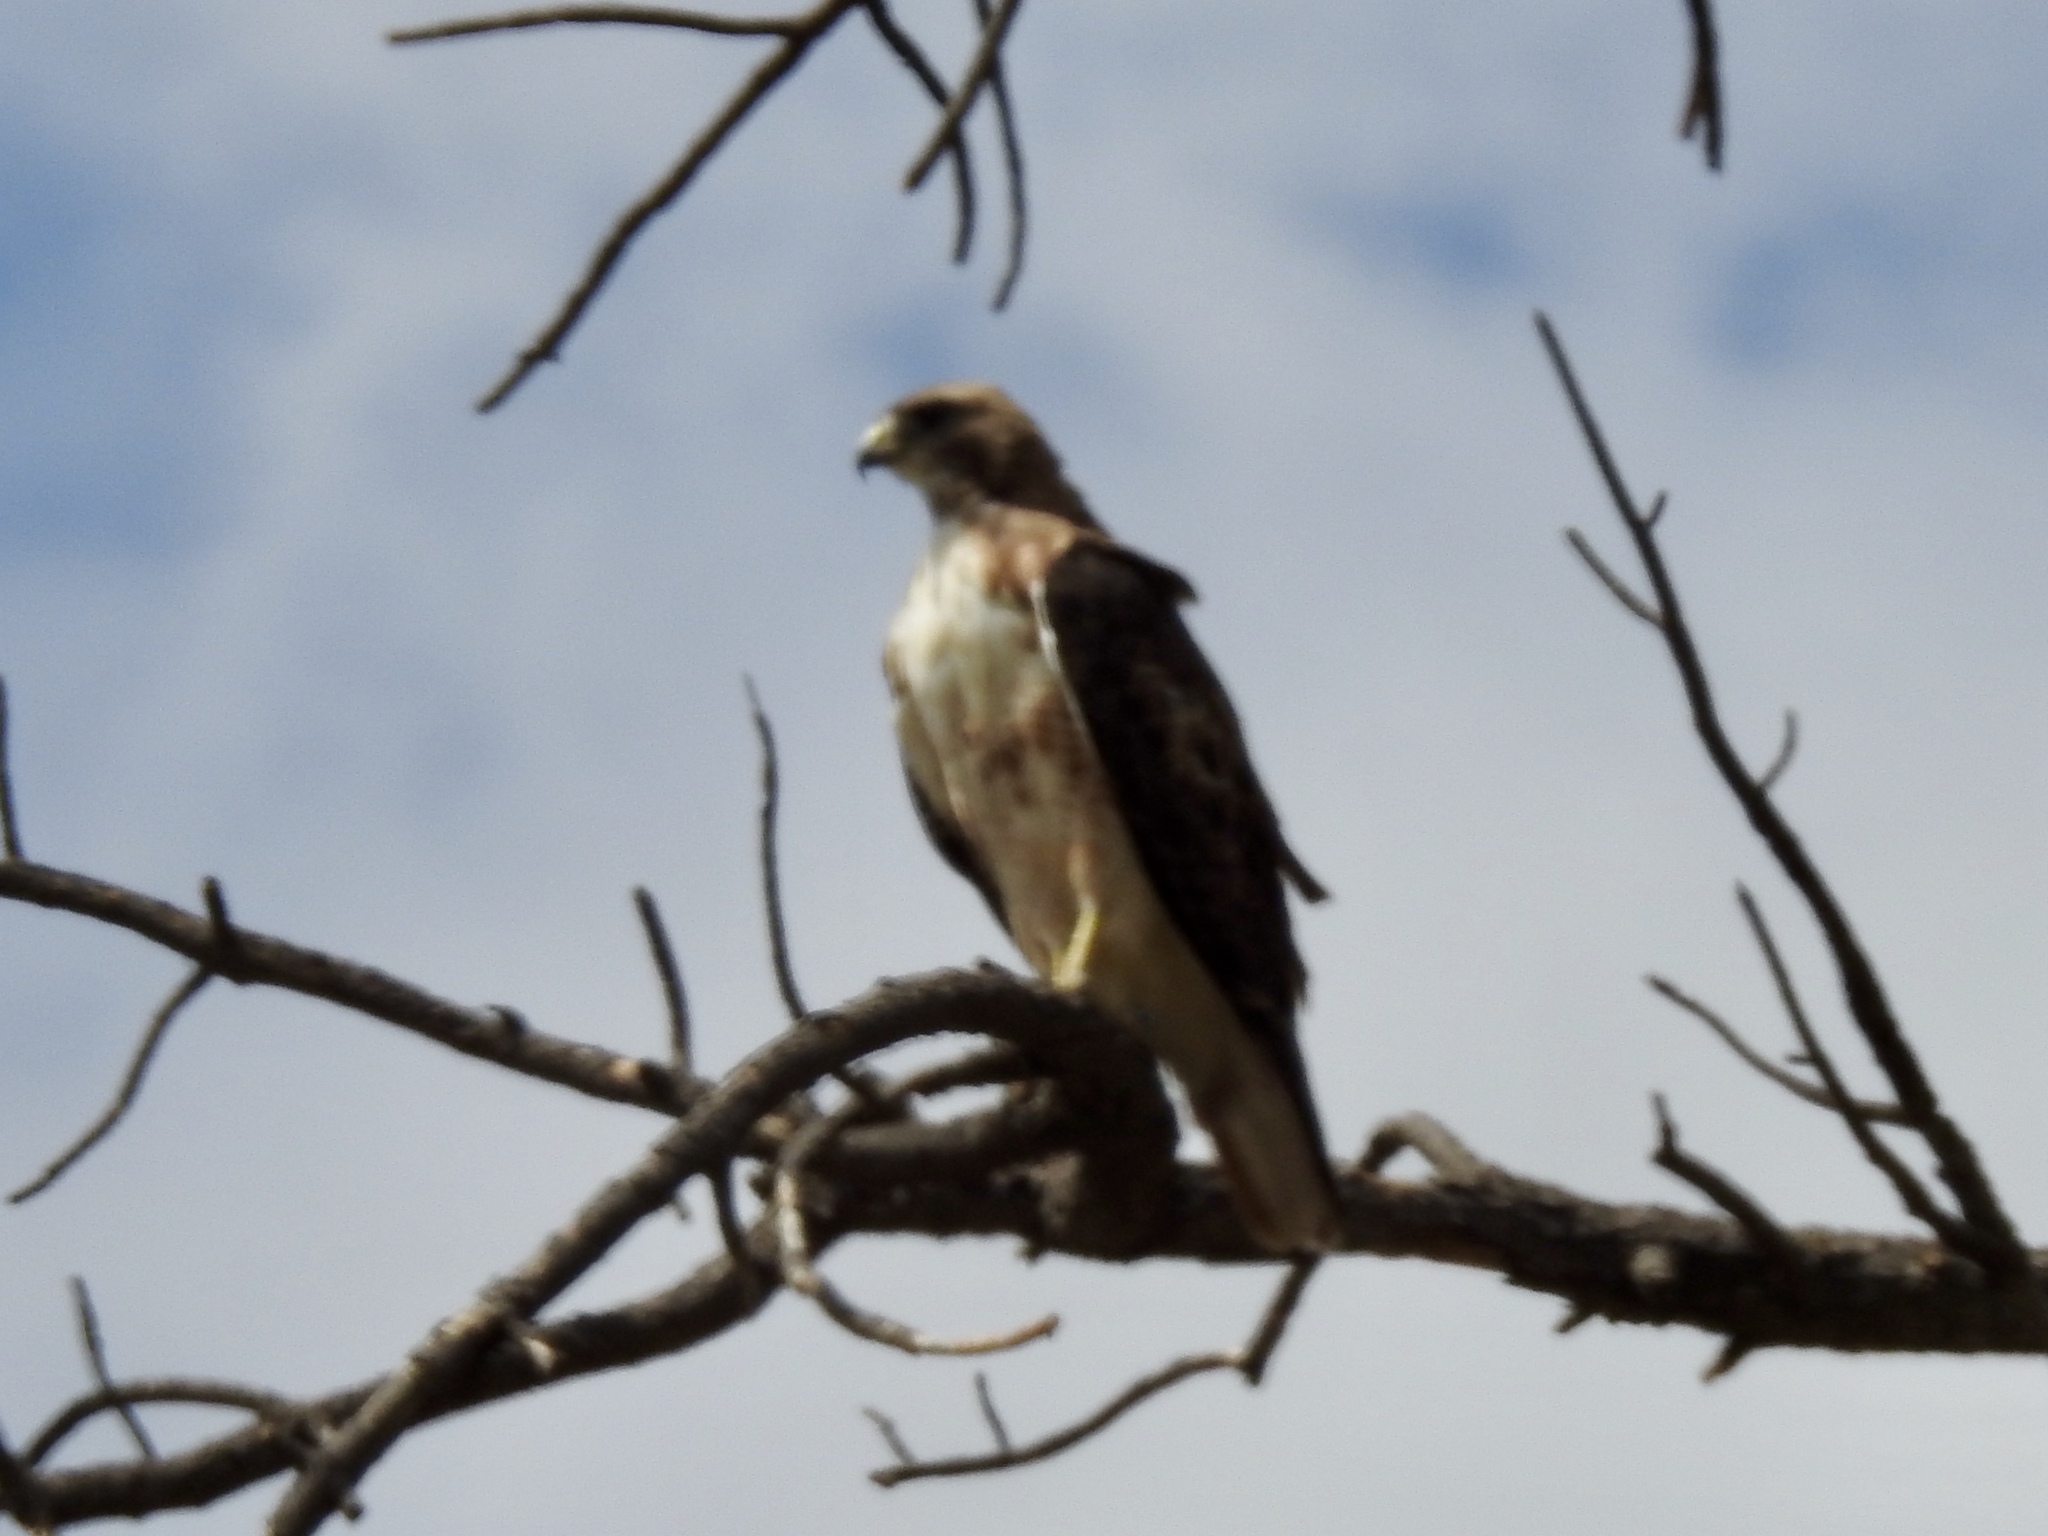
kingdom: Animalia
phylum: Chordata
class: Aves
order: Accipitriformes
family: Accipitridae
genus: Buteo
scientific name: Buteo swainsoni
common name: Swainson's hawk
